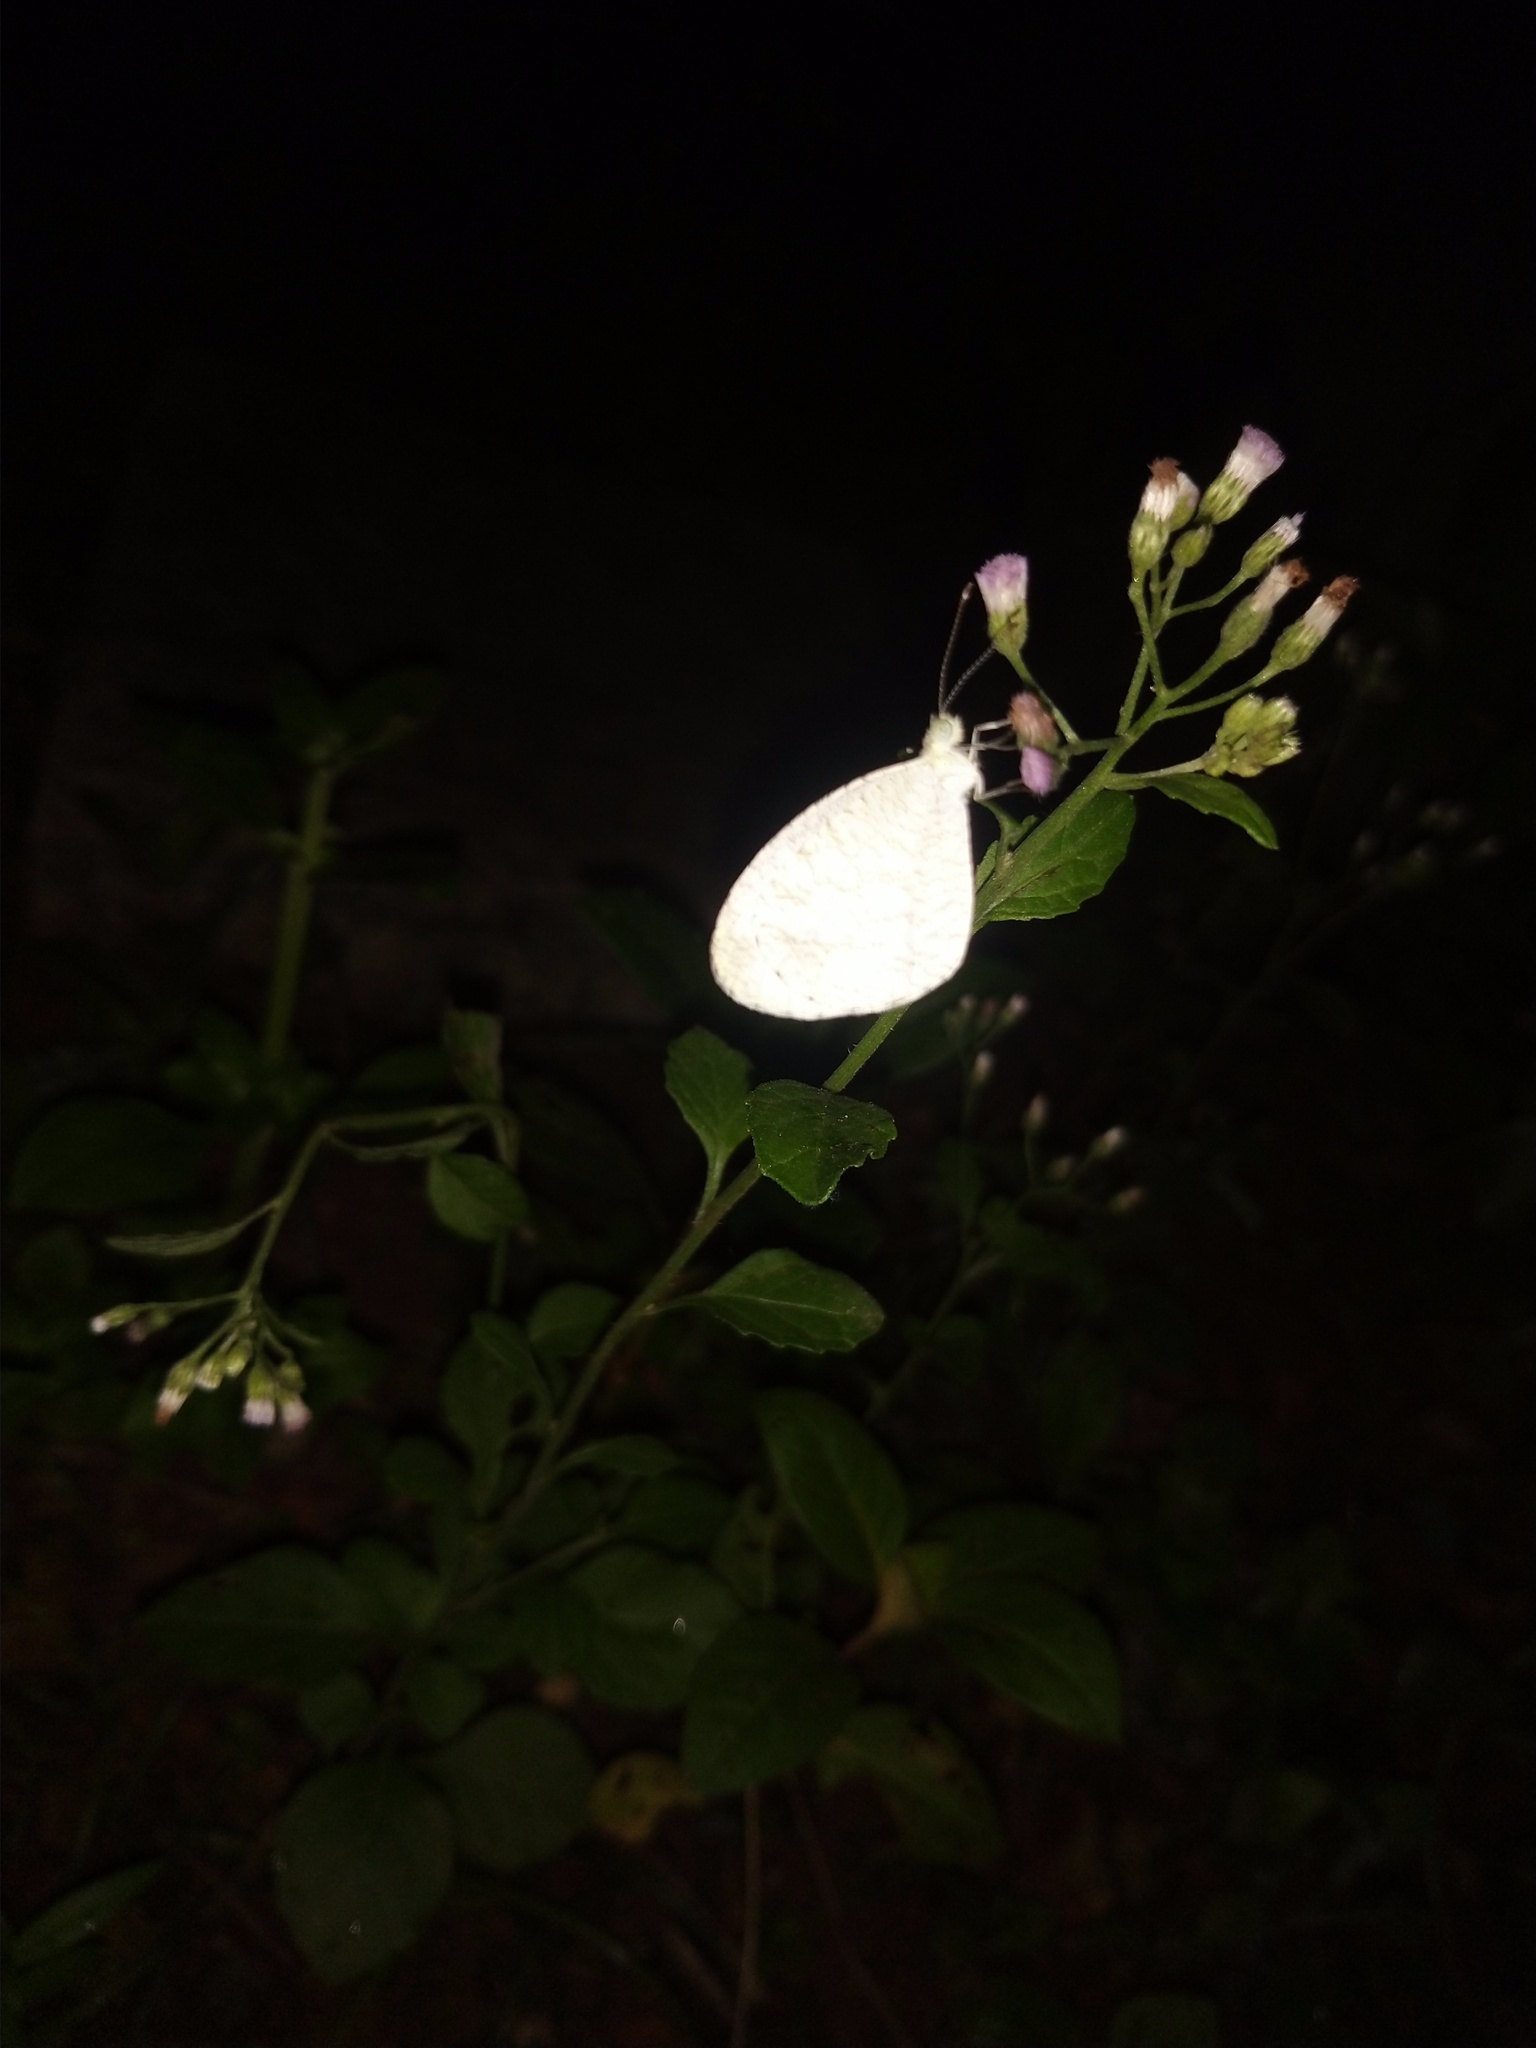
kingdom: Animalia
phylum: Arthropoda
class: Insecta
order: Lepidoptera
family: Pieridae
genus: Leptosia
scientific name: Leptosia nina
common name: Psyche
